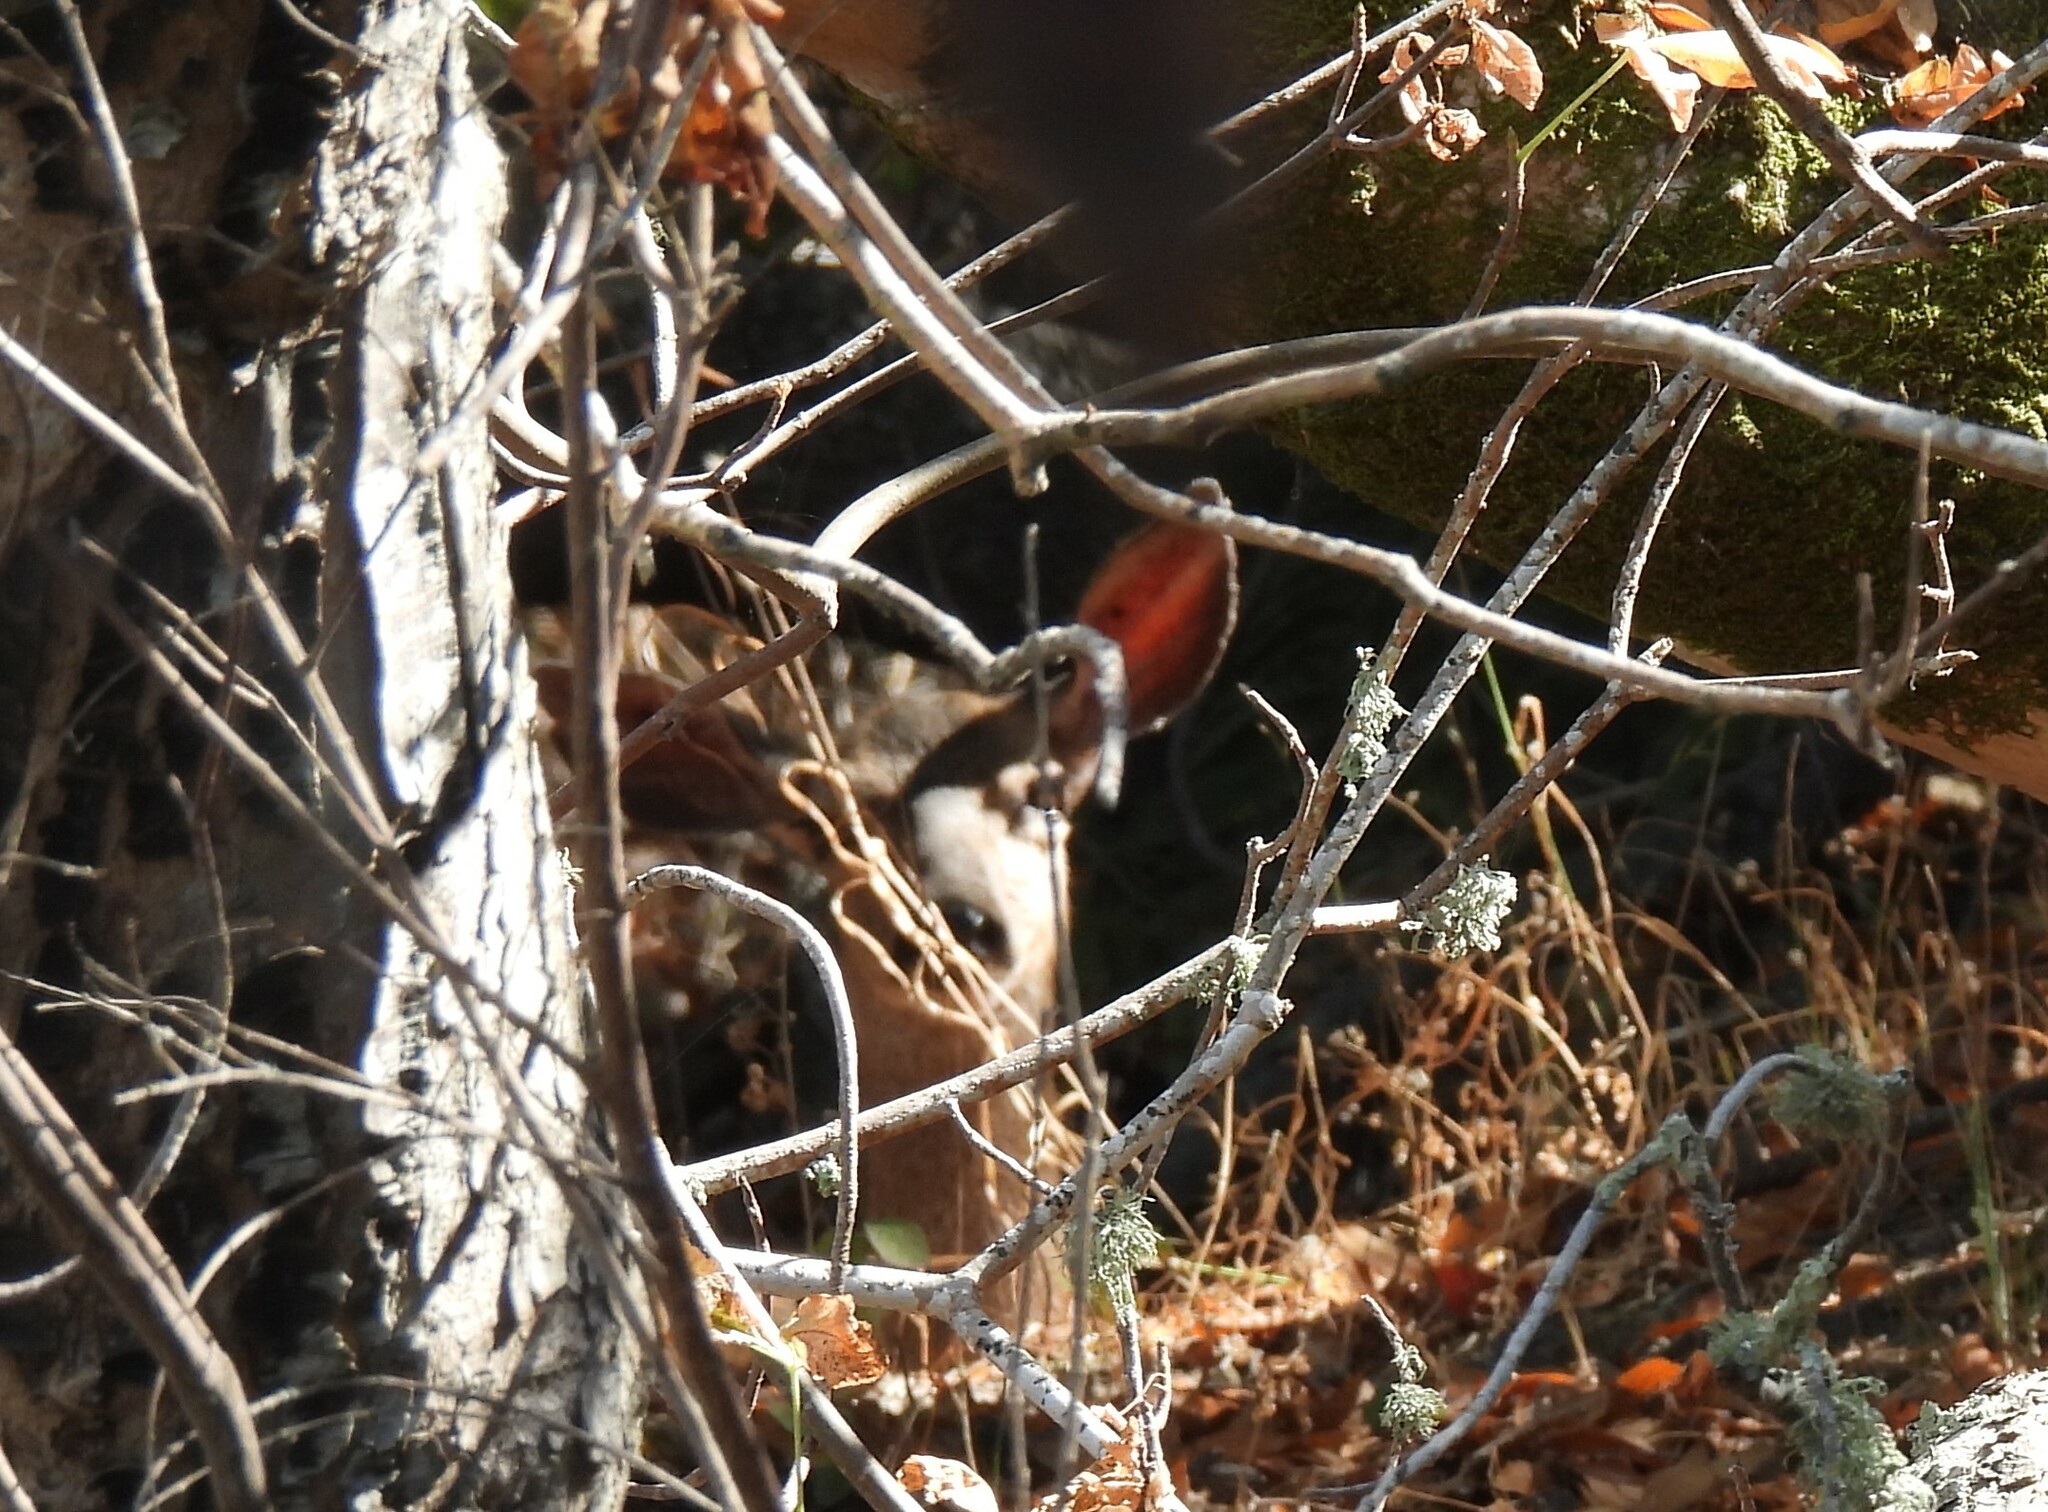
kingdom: Animalia
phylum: Chordata
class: Mammalia
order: Artiodactyla
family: Cervidae
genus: Odocoileus
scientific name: Odocoileus hemionus
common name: Mule deer
